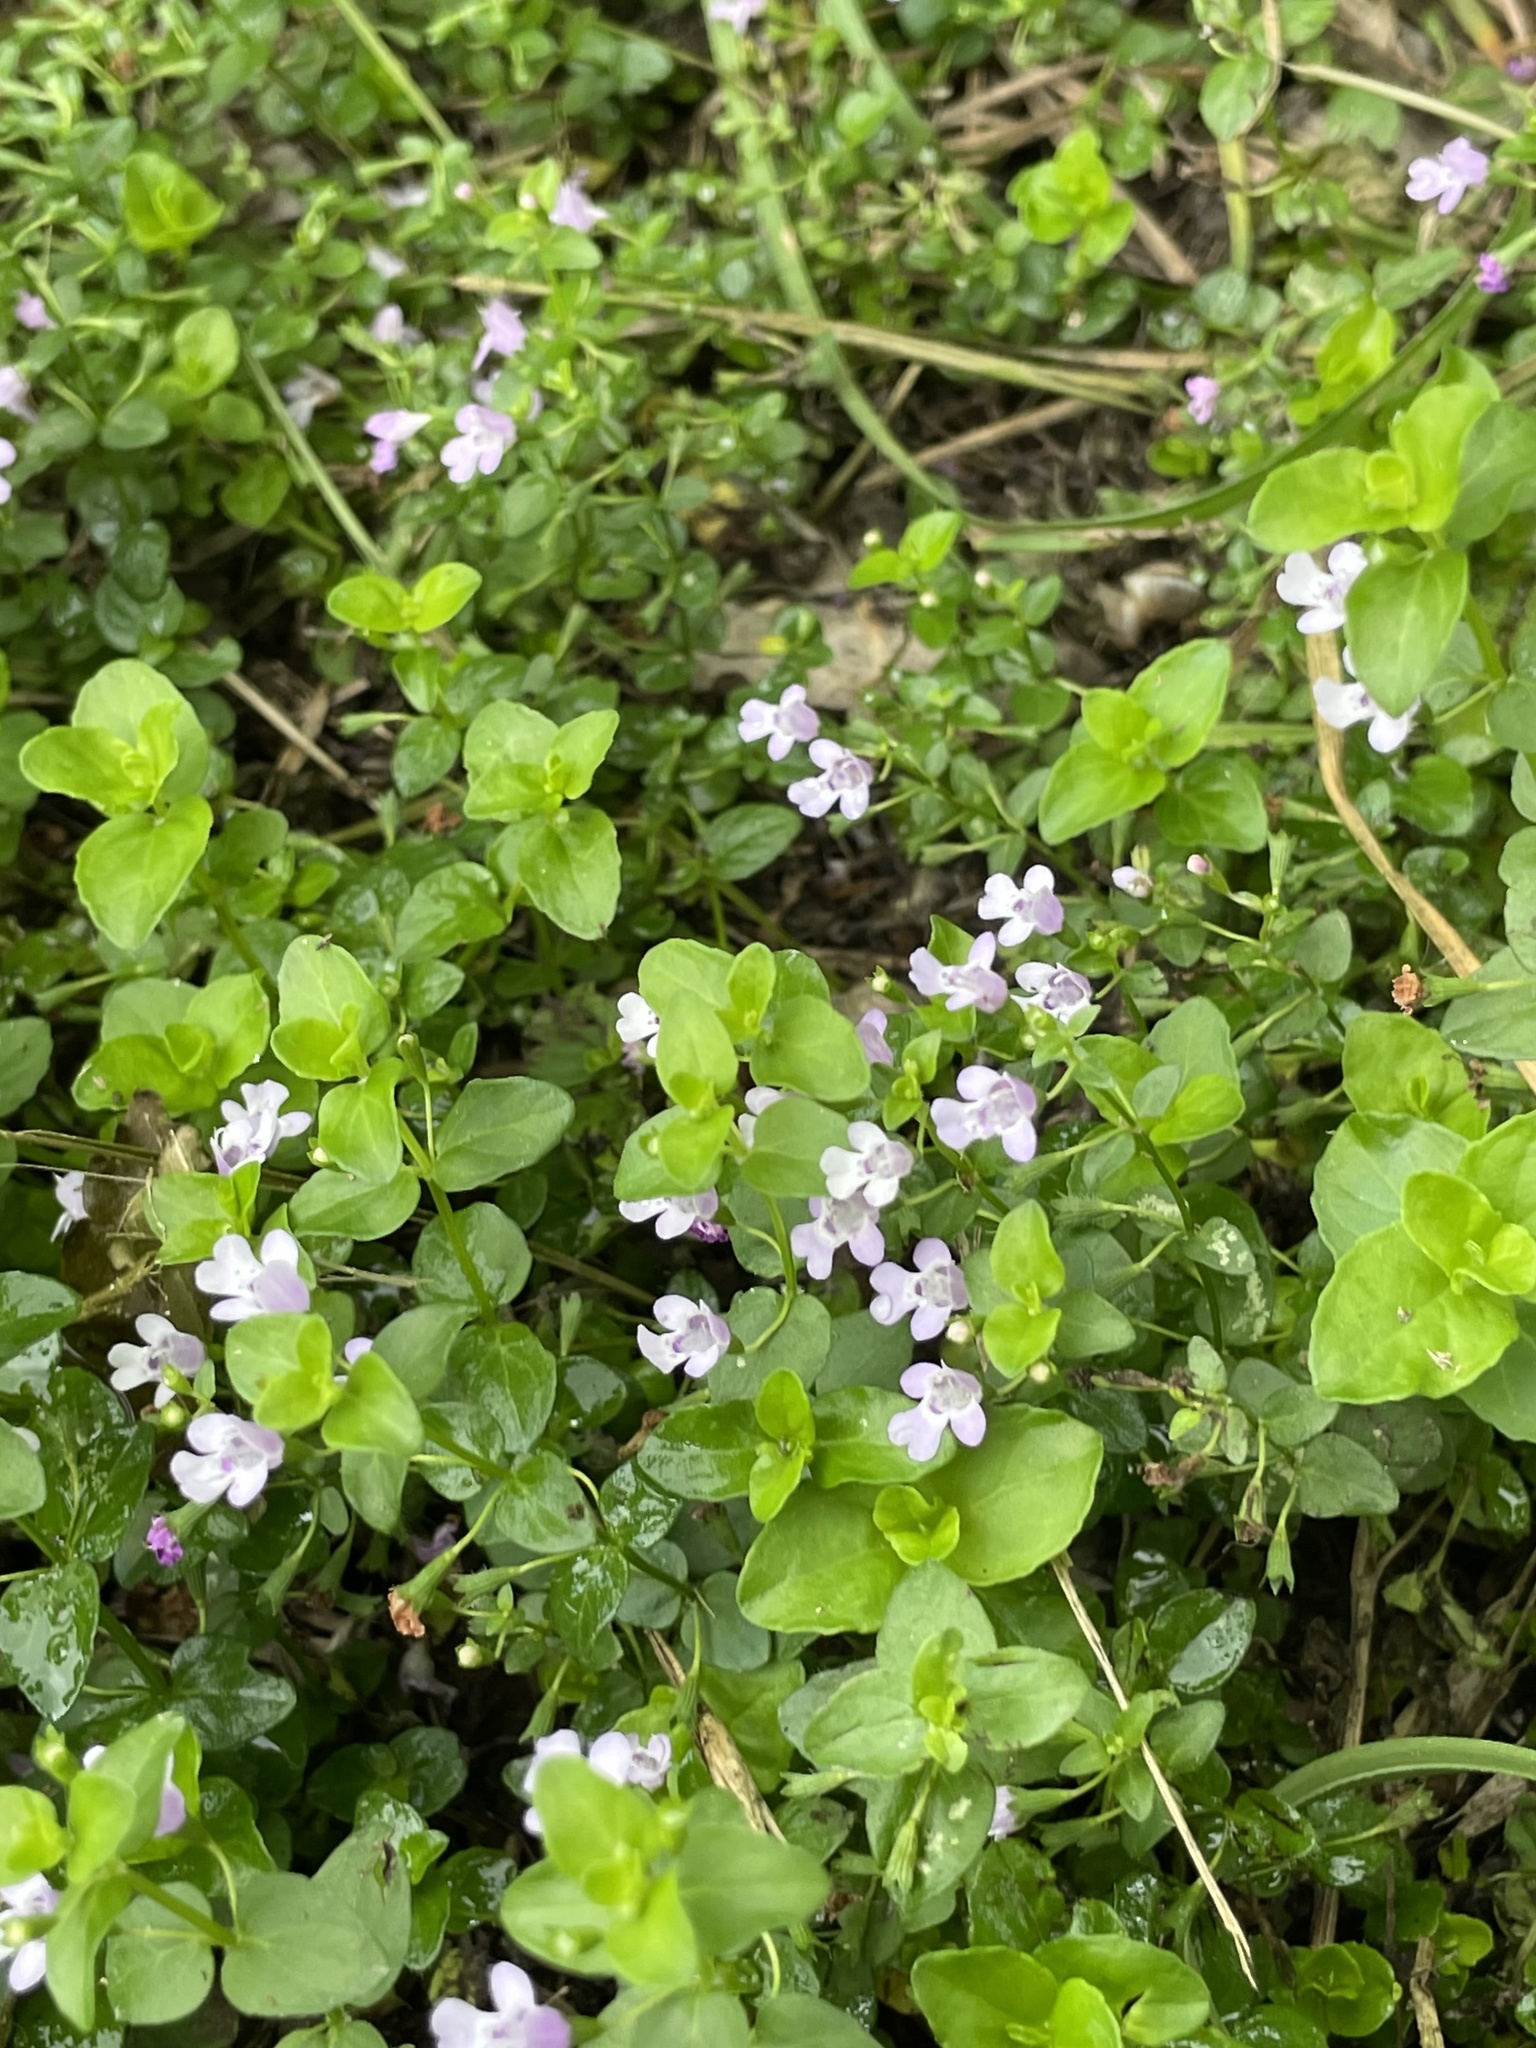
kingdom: Plantae
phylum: Tracheophyta
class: Magnoliopsida
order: Lamiales
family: Lamiaceae
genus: Clinopodium
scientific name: Clinopodium brownei
